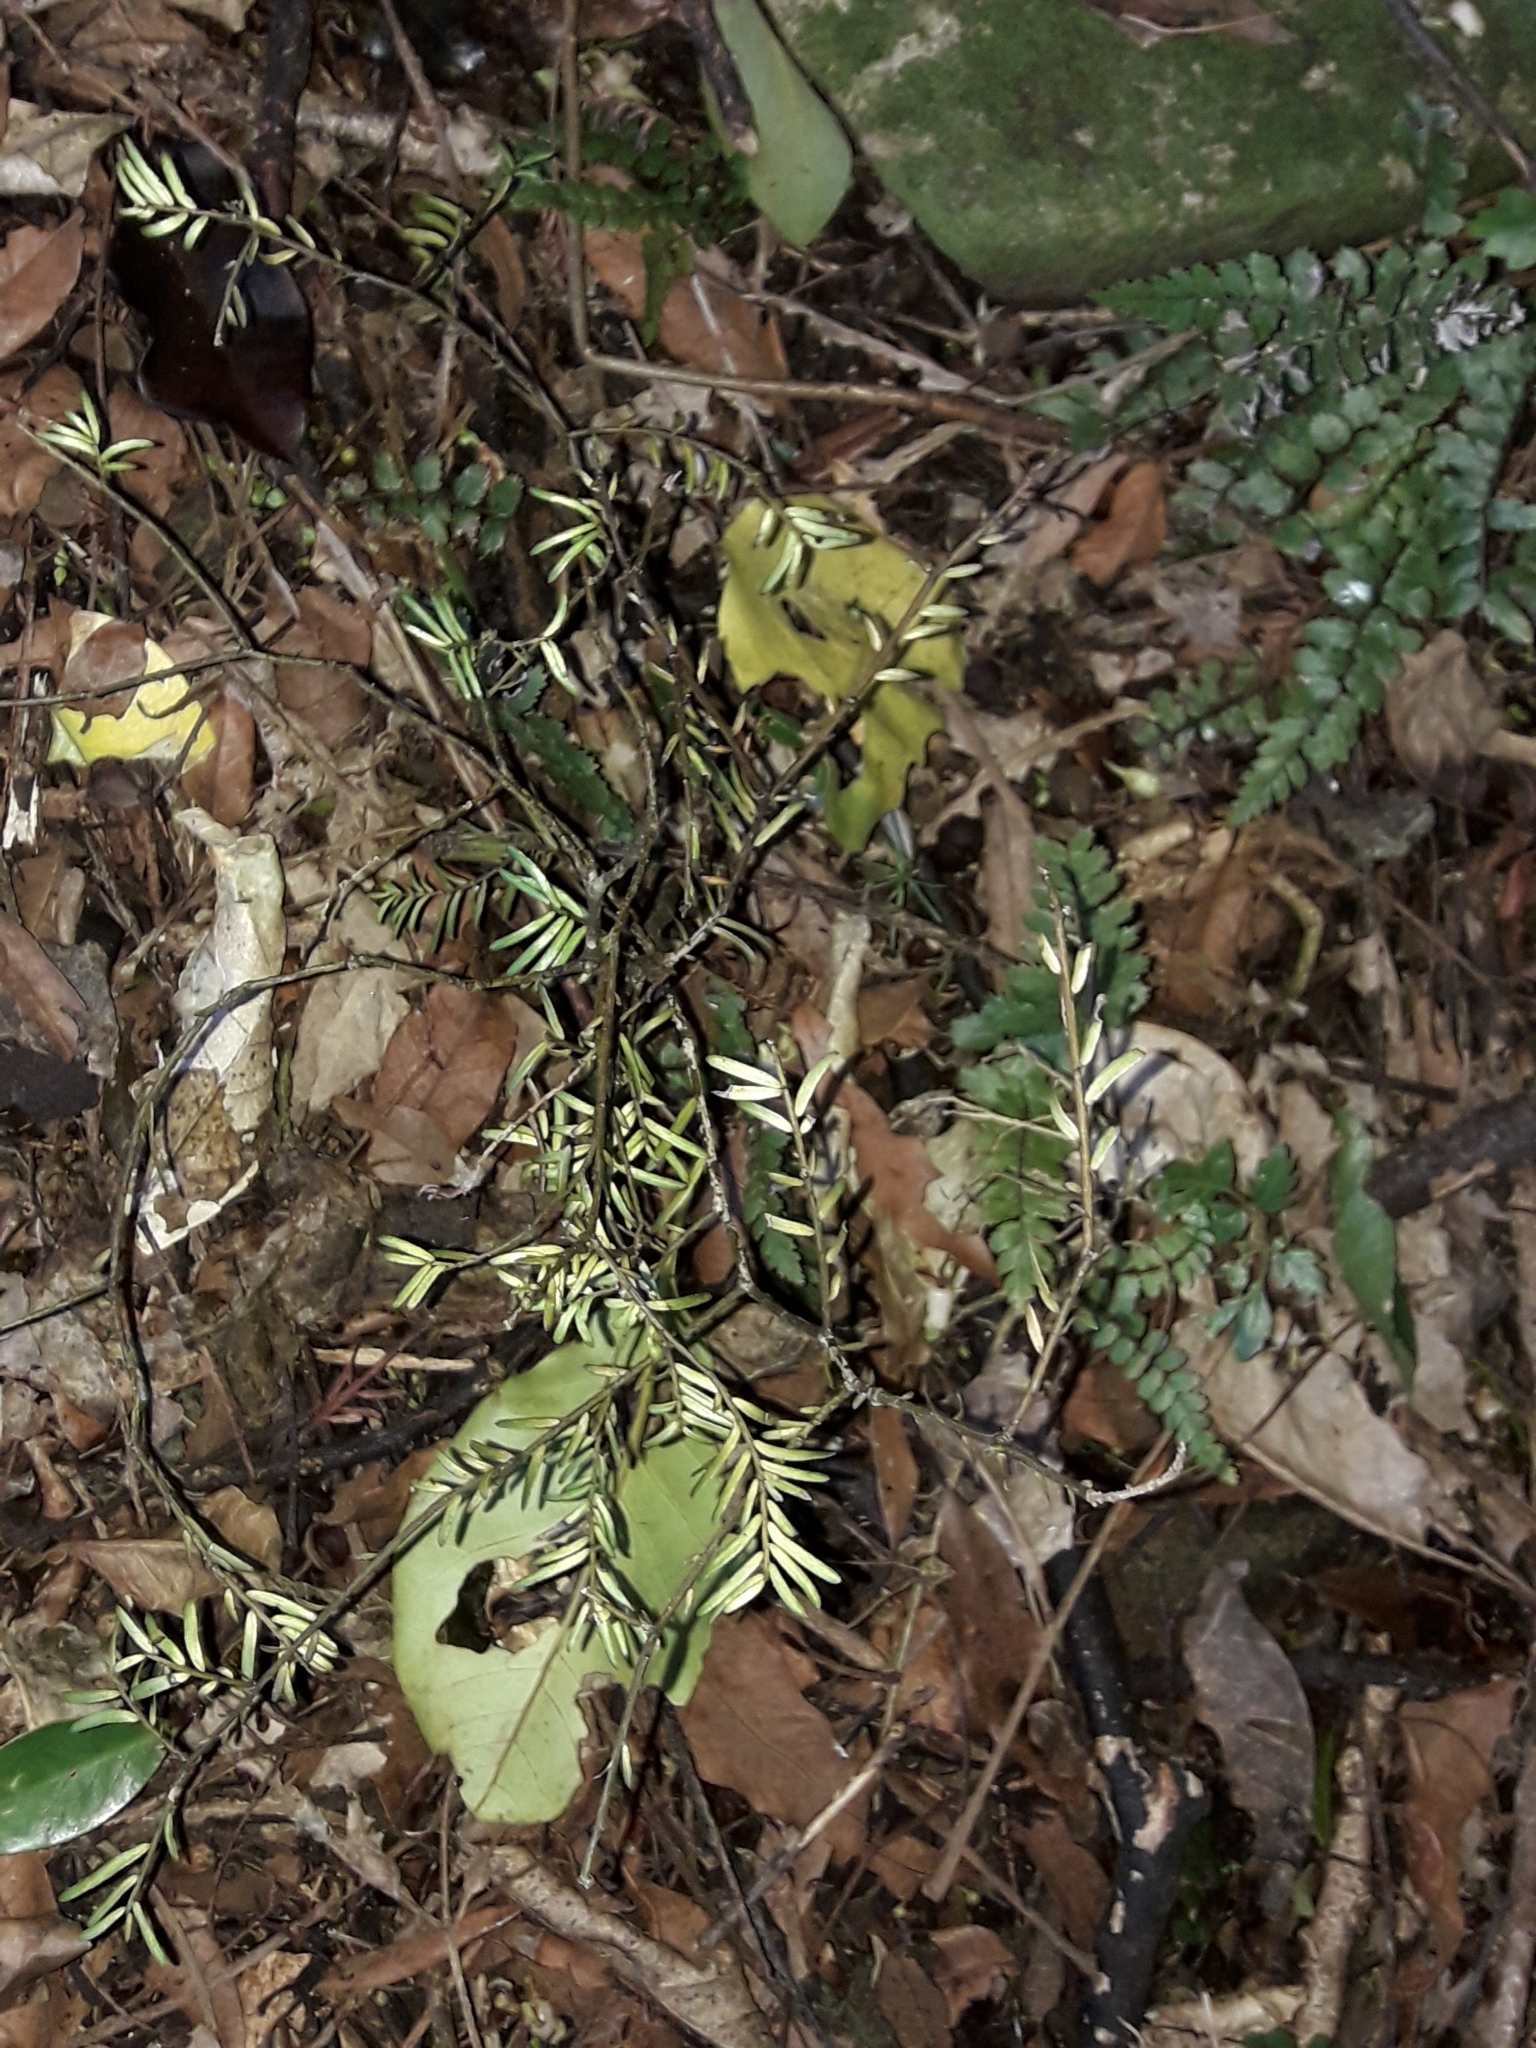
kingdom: Plantae
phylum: Tracheophyta
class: Pinopsida
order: Pinales
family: Podocarpaceae
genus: Prumnopitys
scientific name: Prumnopitys taxifolia
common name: Matai
